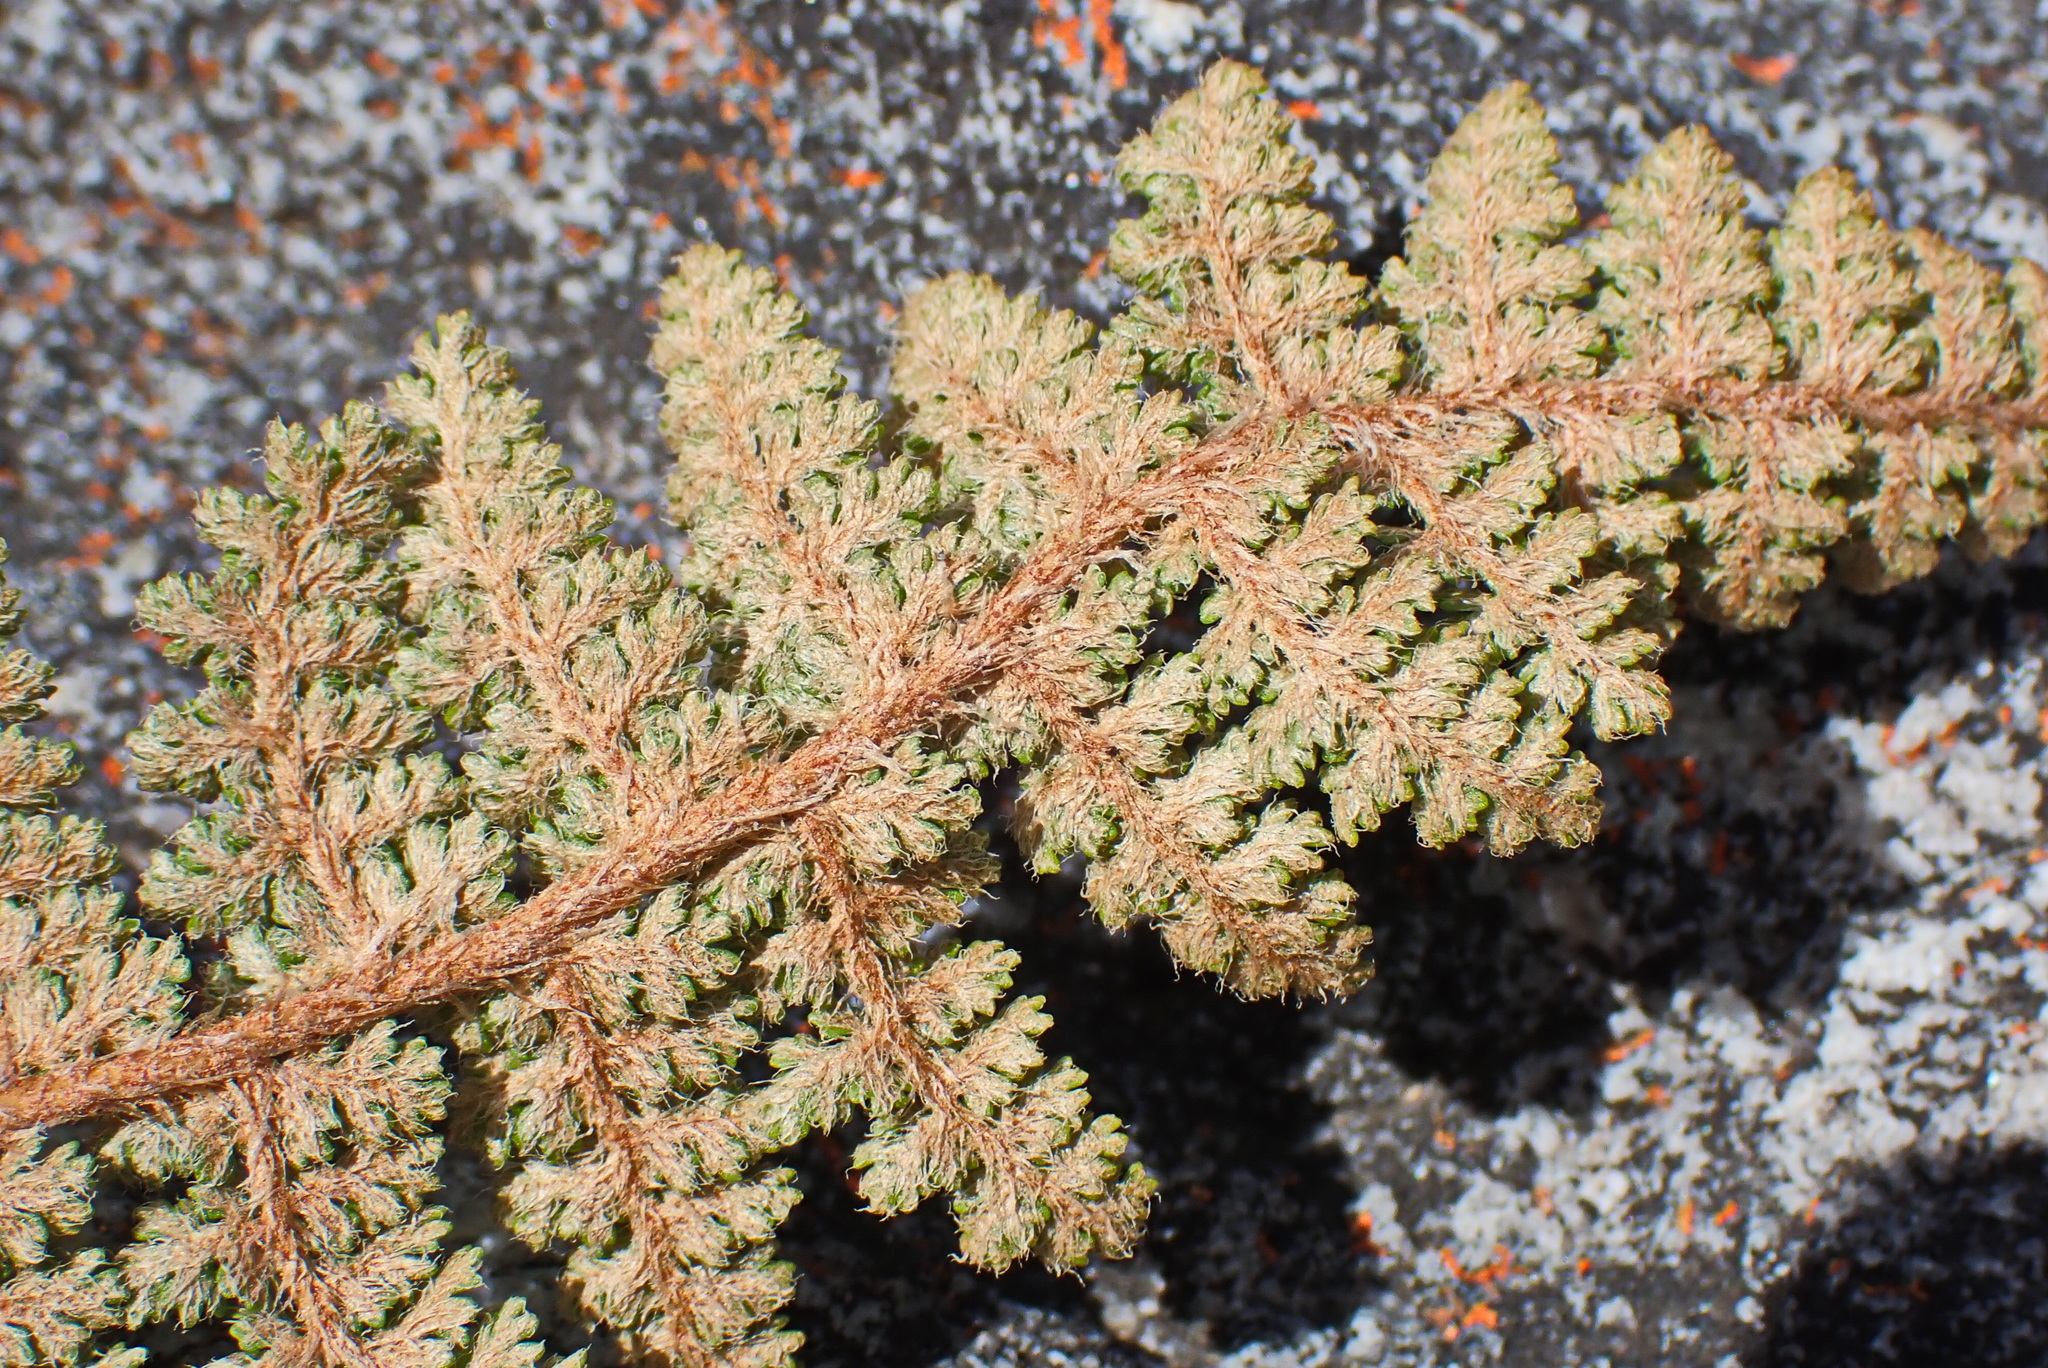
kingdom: Plantae
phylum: Tracheophyta
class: Polypodiopsida
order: Schizaeales
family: Anemiaceae
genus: Anemia
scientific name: Anemia caffrorum
